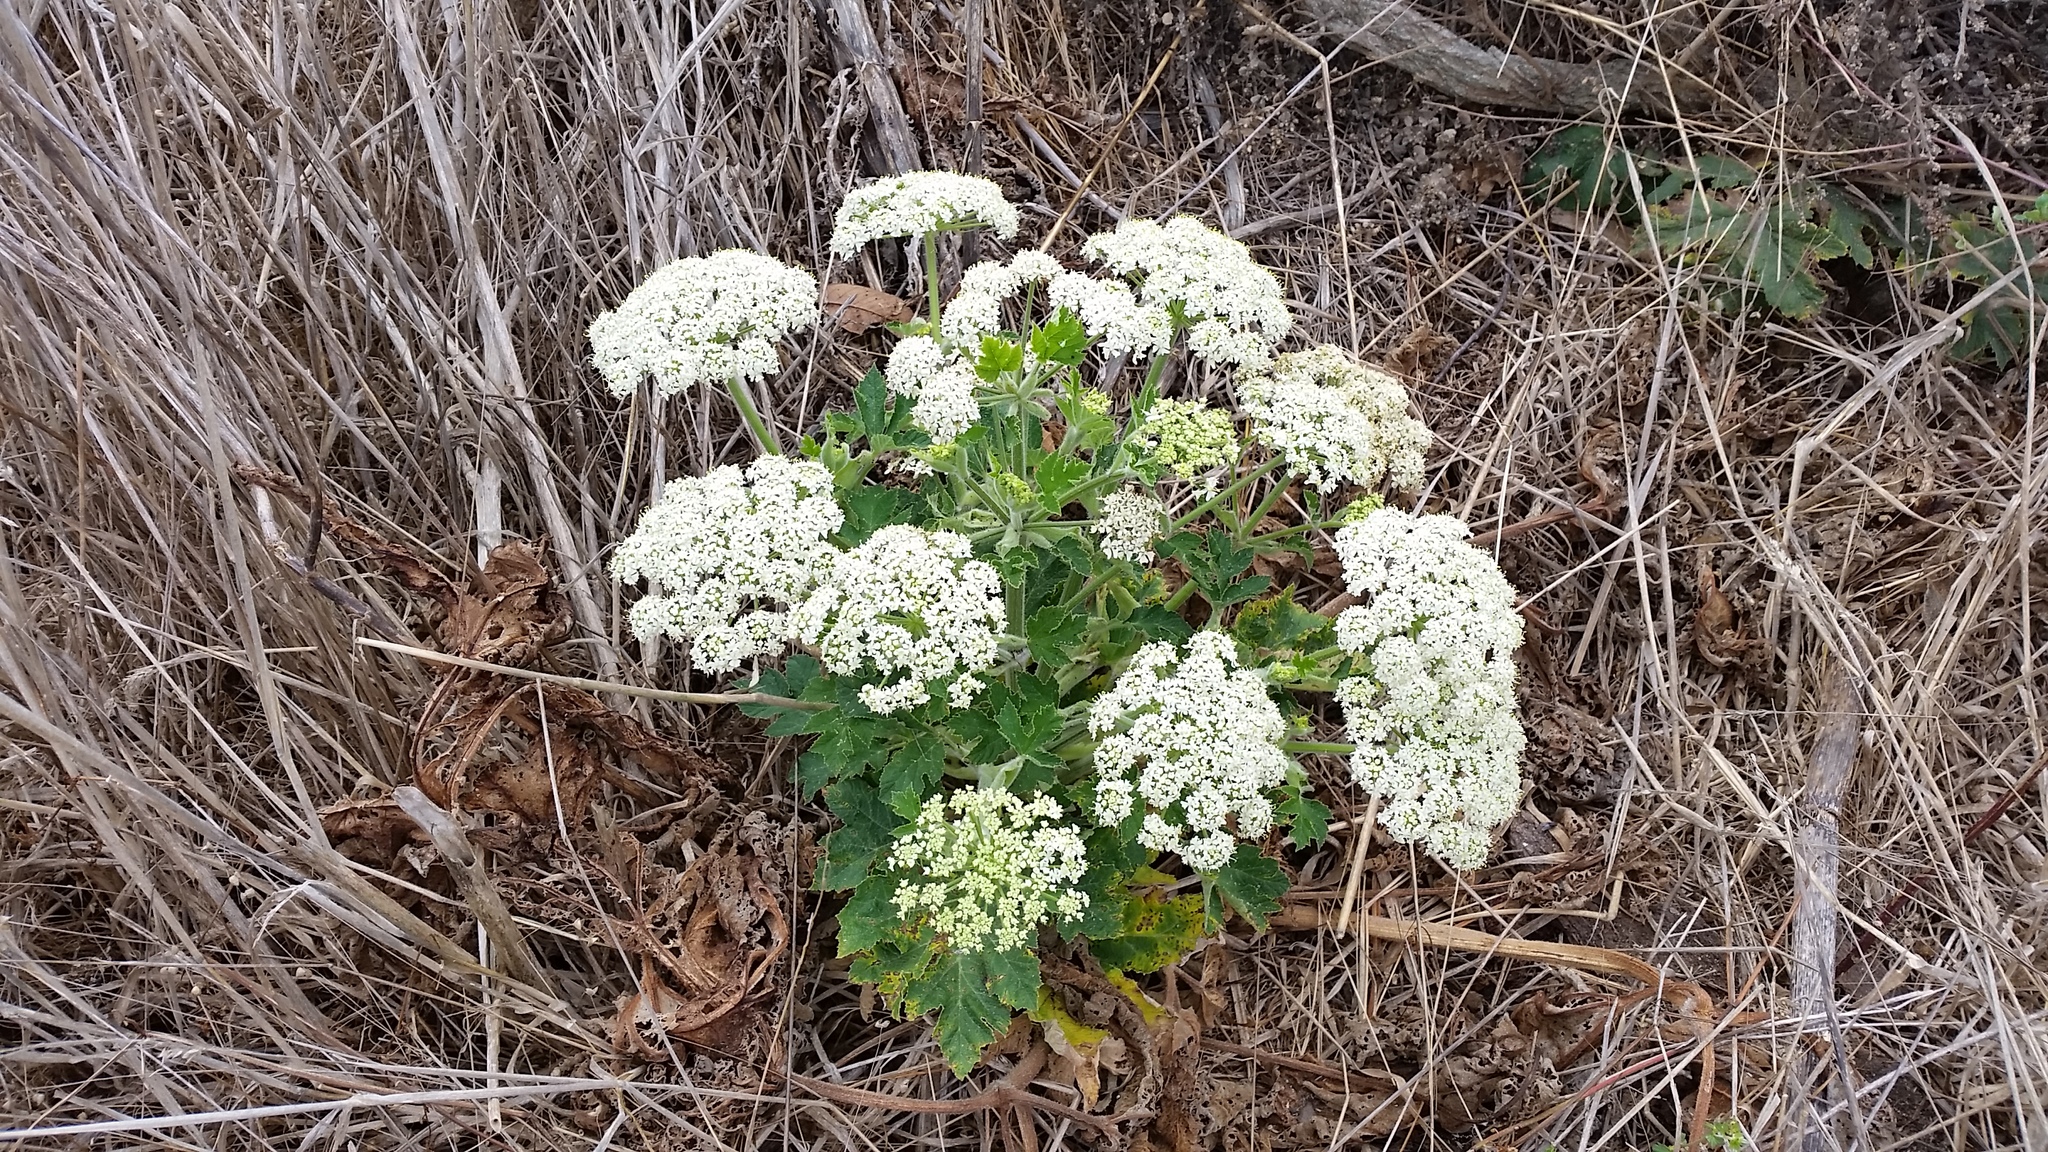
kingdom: Plantae
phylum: Tracheophyta
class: Magnoliopsida
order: Apiales
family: Apiaceae
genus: Heracleum
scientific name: Heracleum maximum
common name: American cow parsnip
